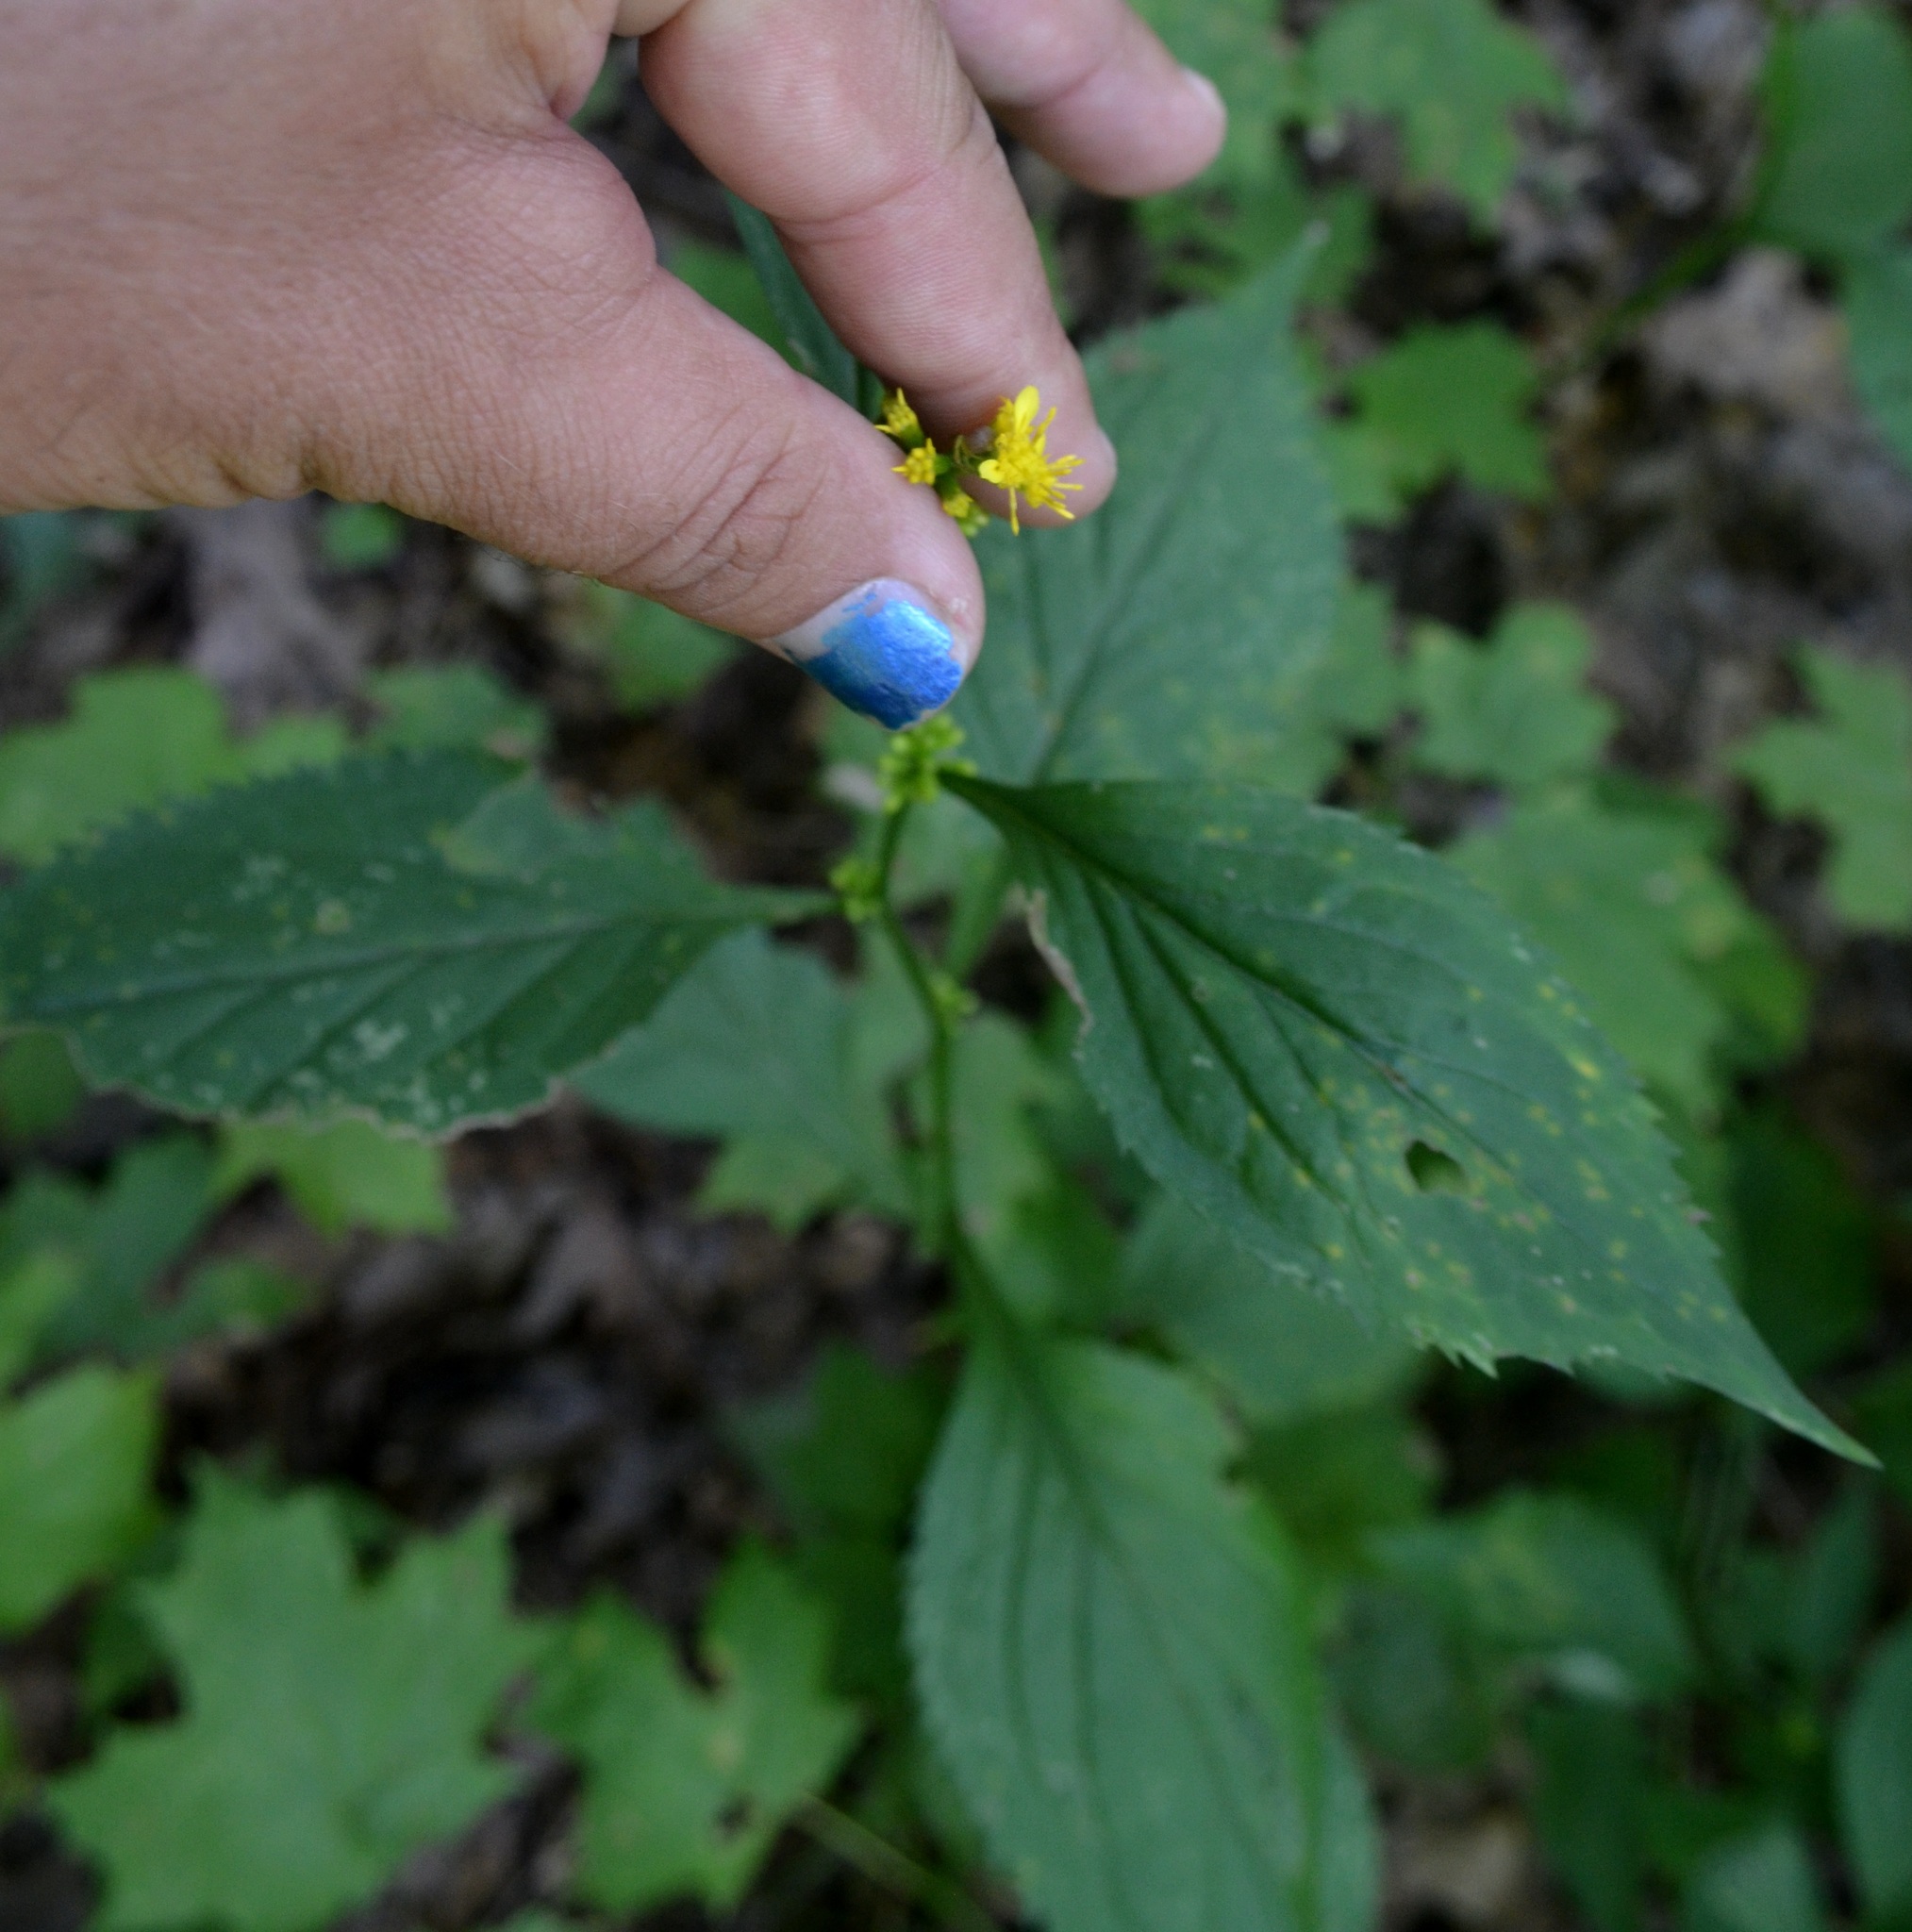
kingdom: Plantae
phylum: Tracheophyta
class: Magnoliopsida
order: Asterales
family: Asteraceae
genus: Solidago
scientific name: Solidago flexicaulis
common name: Zig-zag goldenrod
